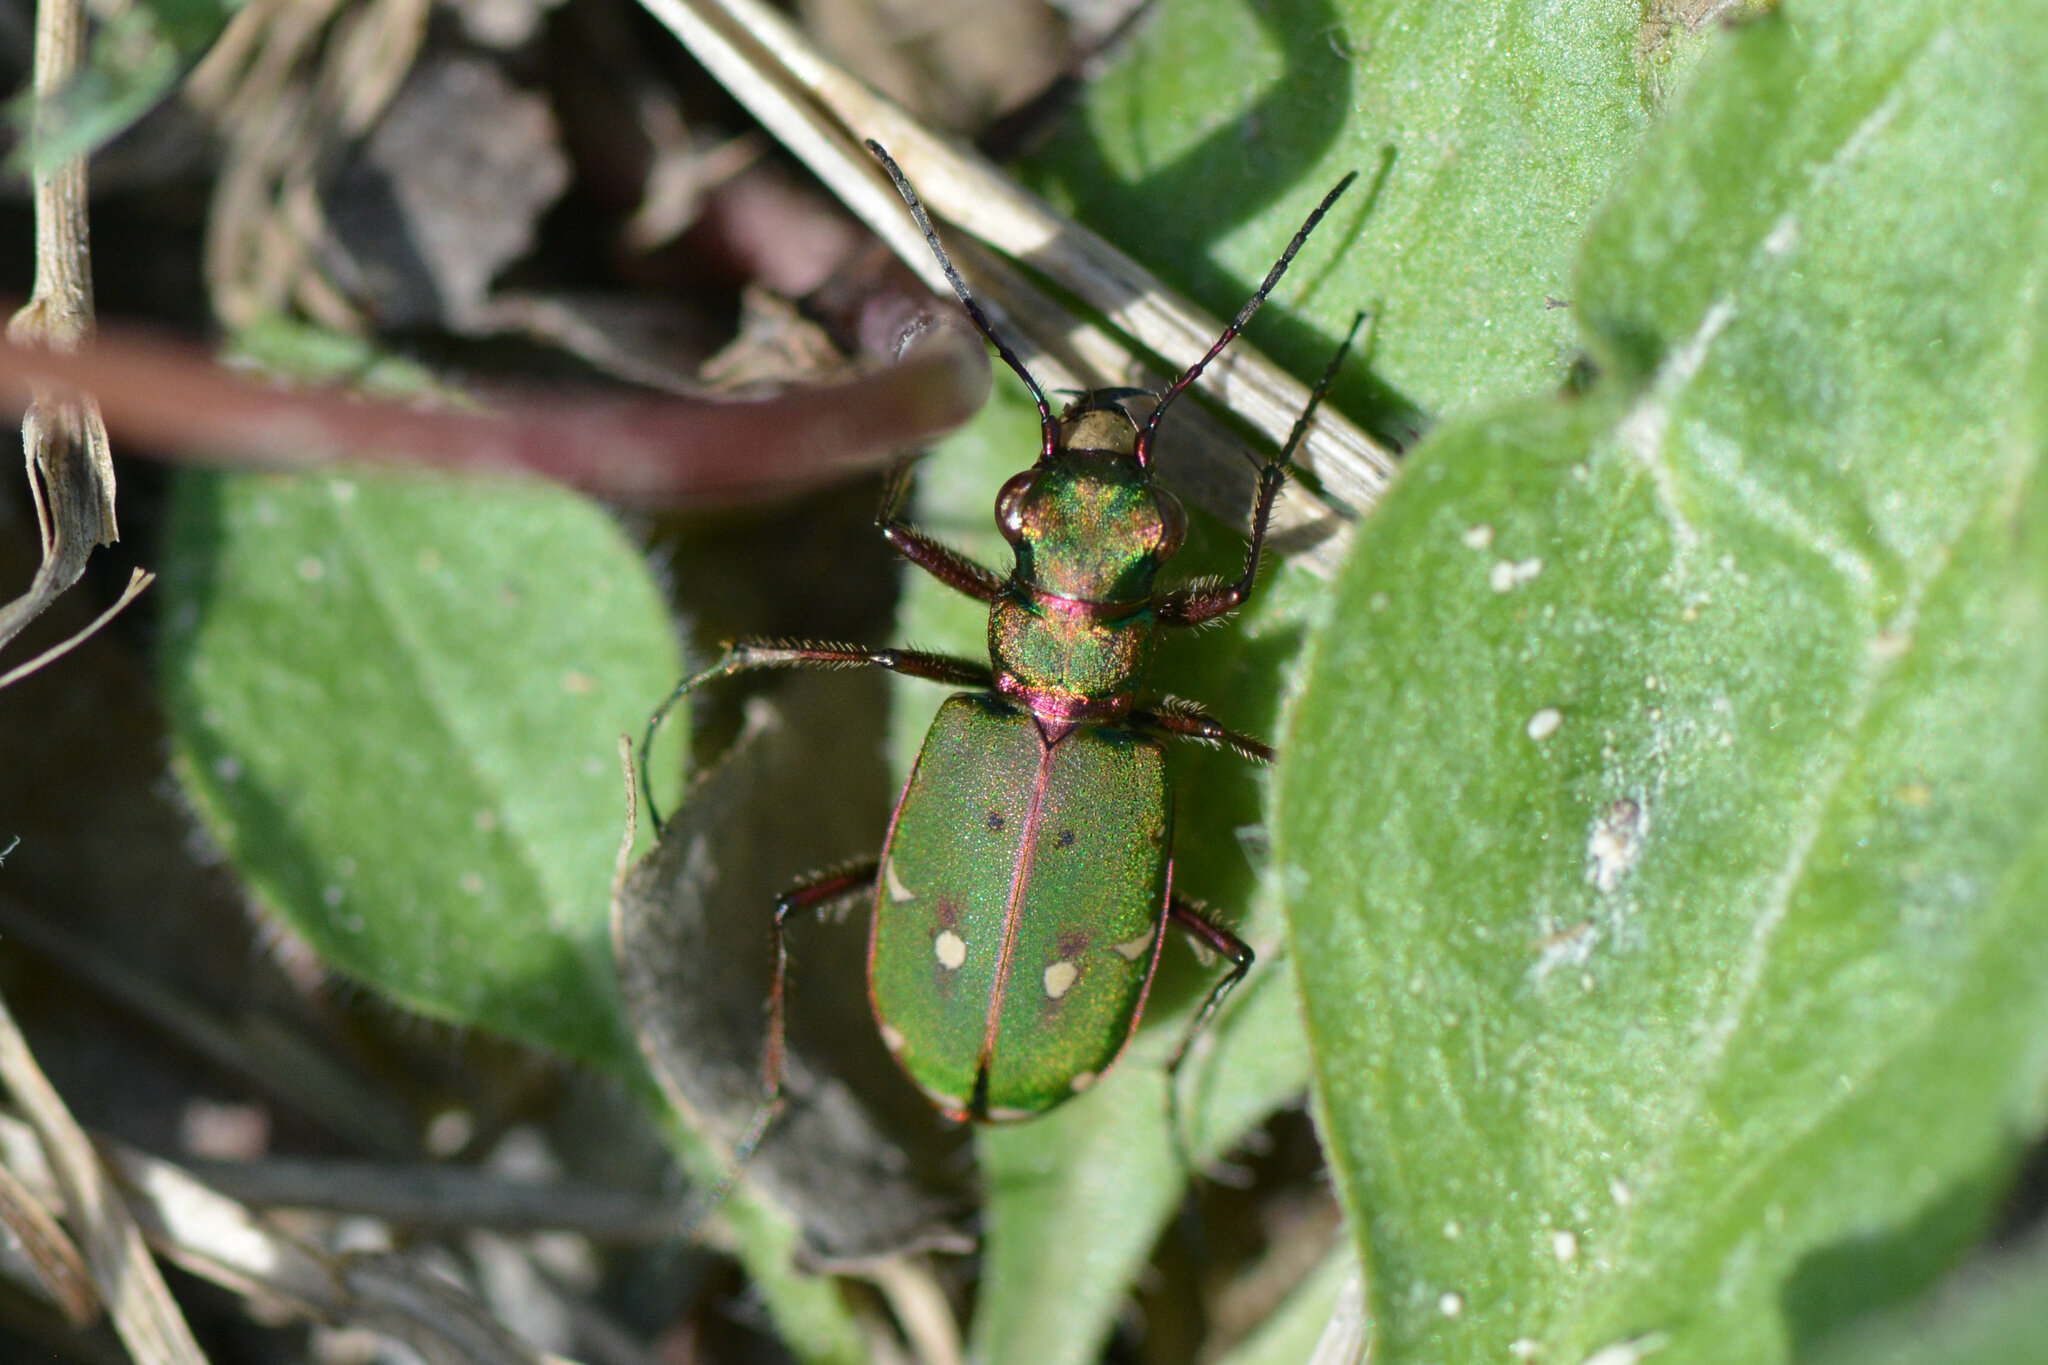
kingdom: Animalia
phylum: Arthropoda
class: Insecta
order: Coleoptera
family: Carabidae
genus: Cicindela
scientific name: Cicindela campestris
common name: Common tiger beetle
